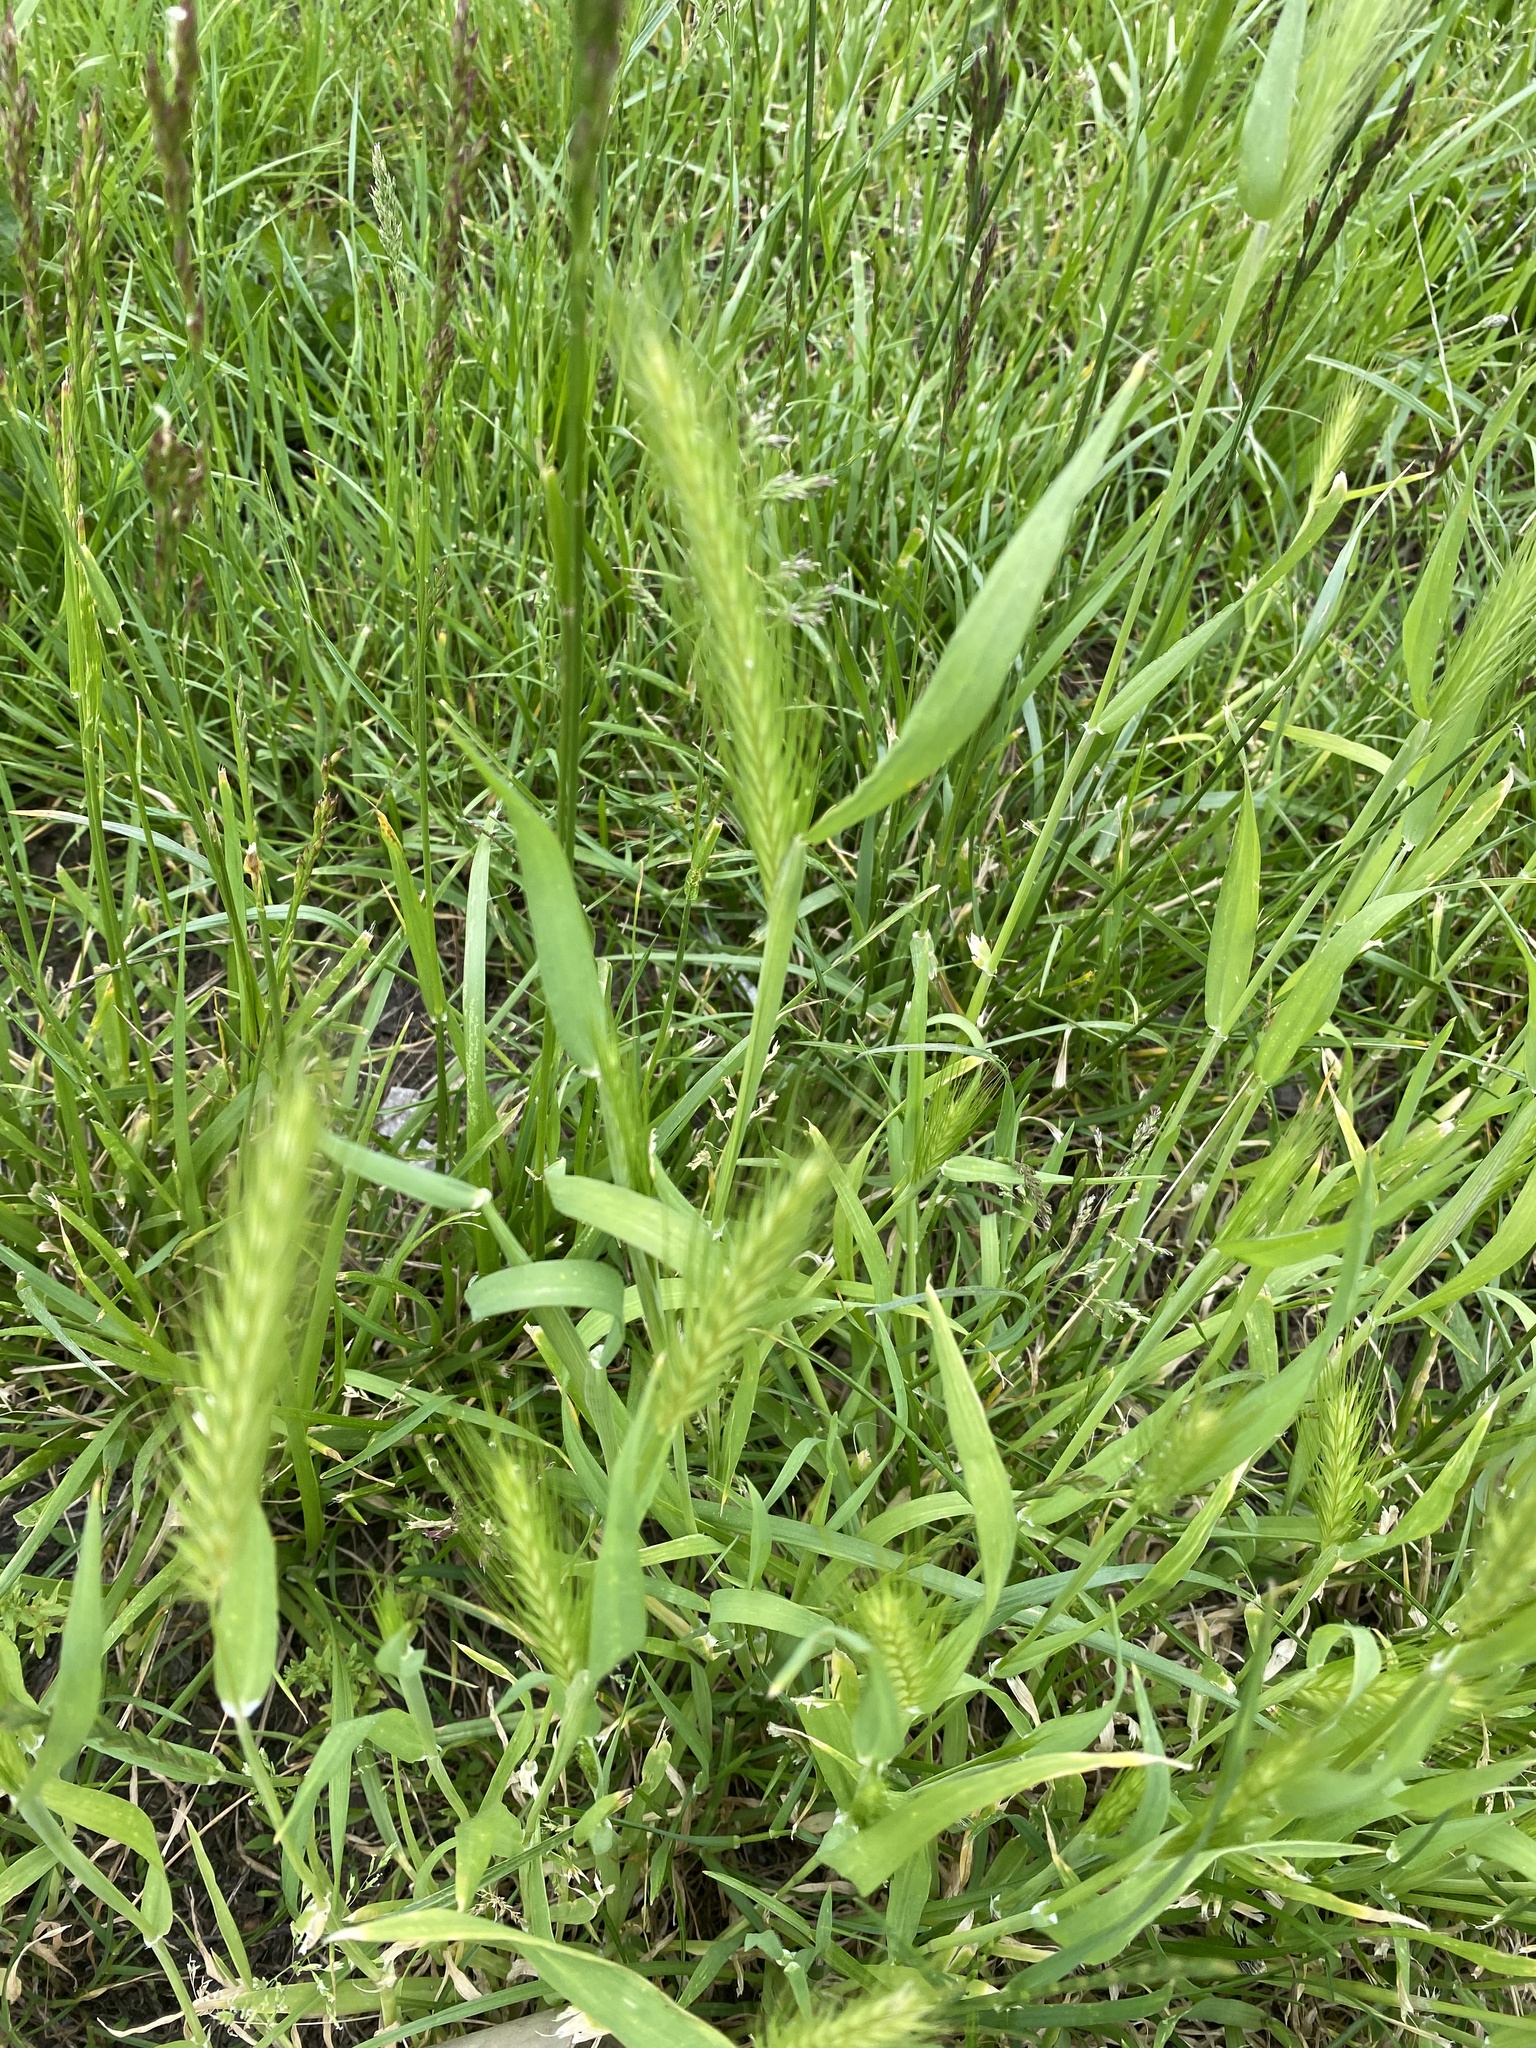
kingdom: Plantae
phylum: Tracheophyta
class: Liliopsida
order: Poales
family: Poaceae
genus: Hordeum
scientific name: Hordeum murinum
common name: Wall barley
